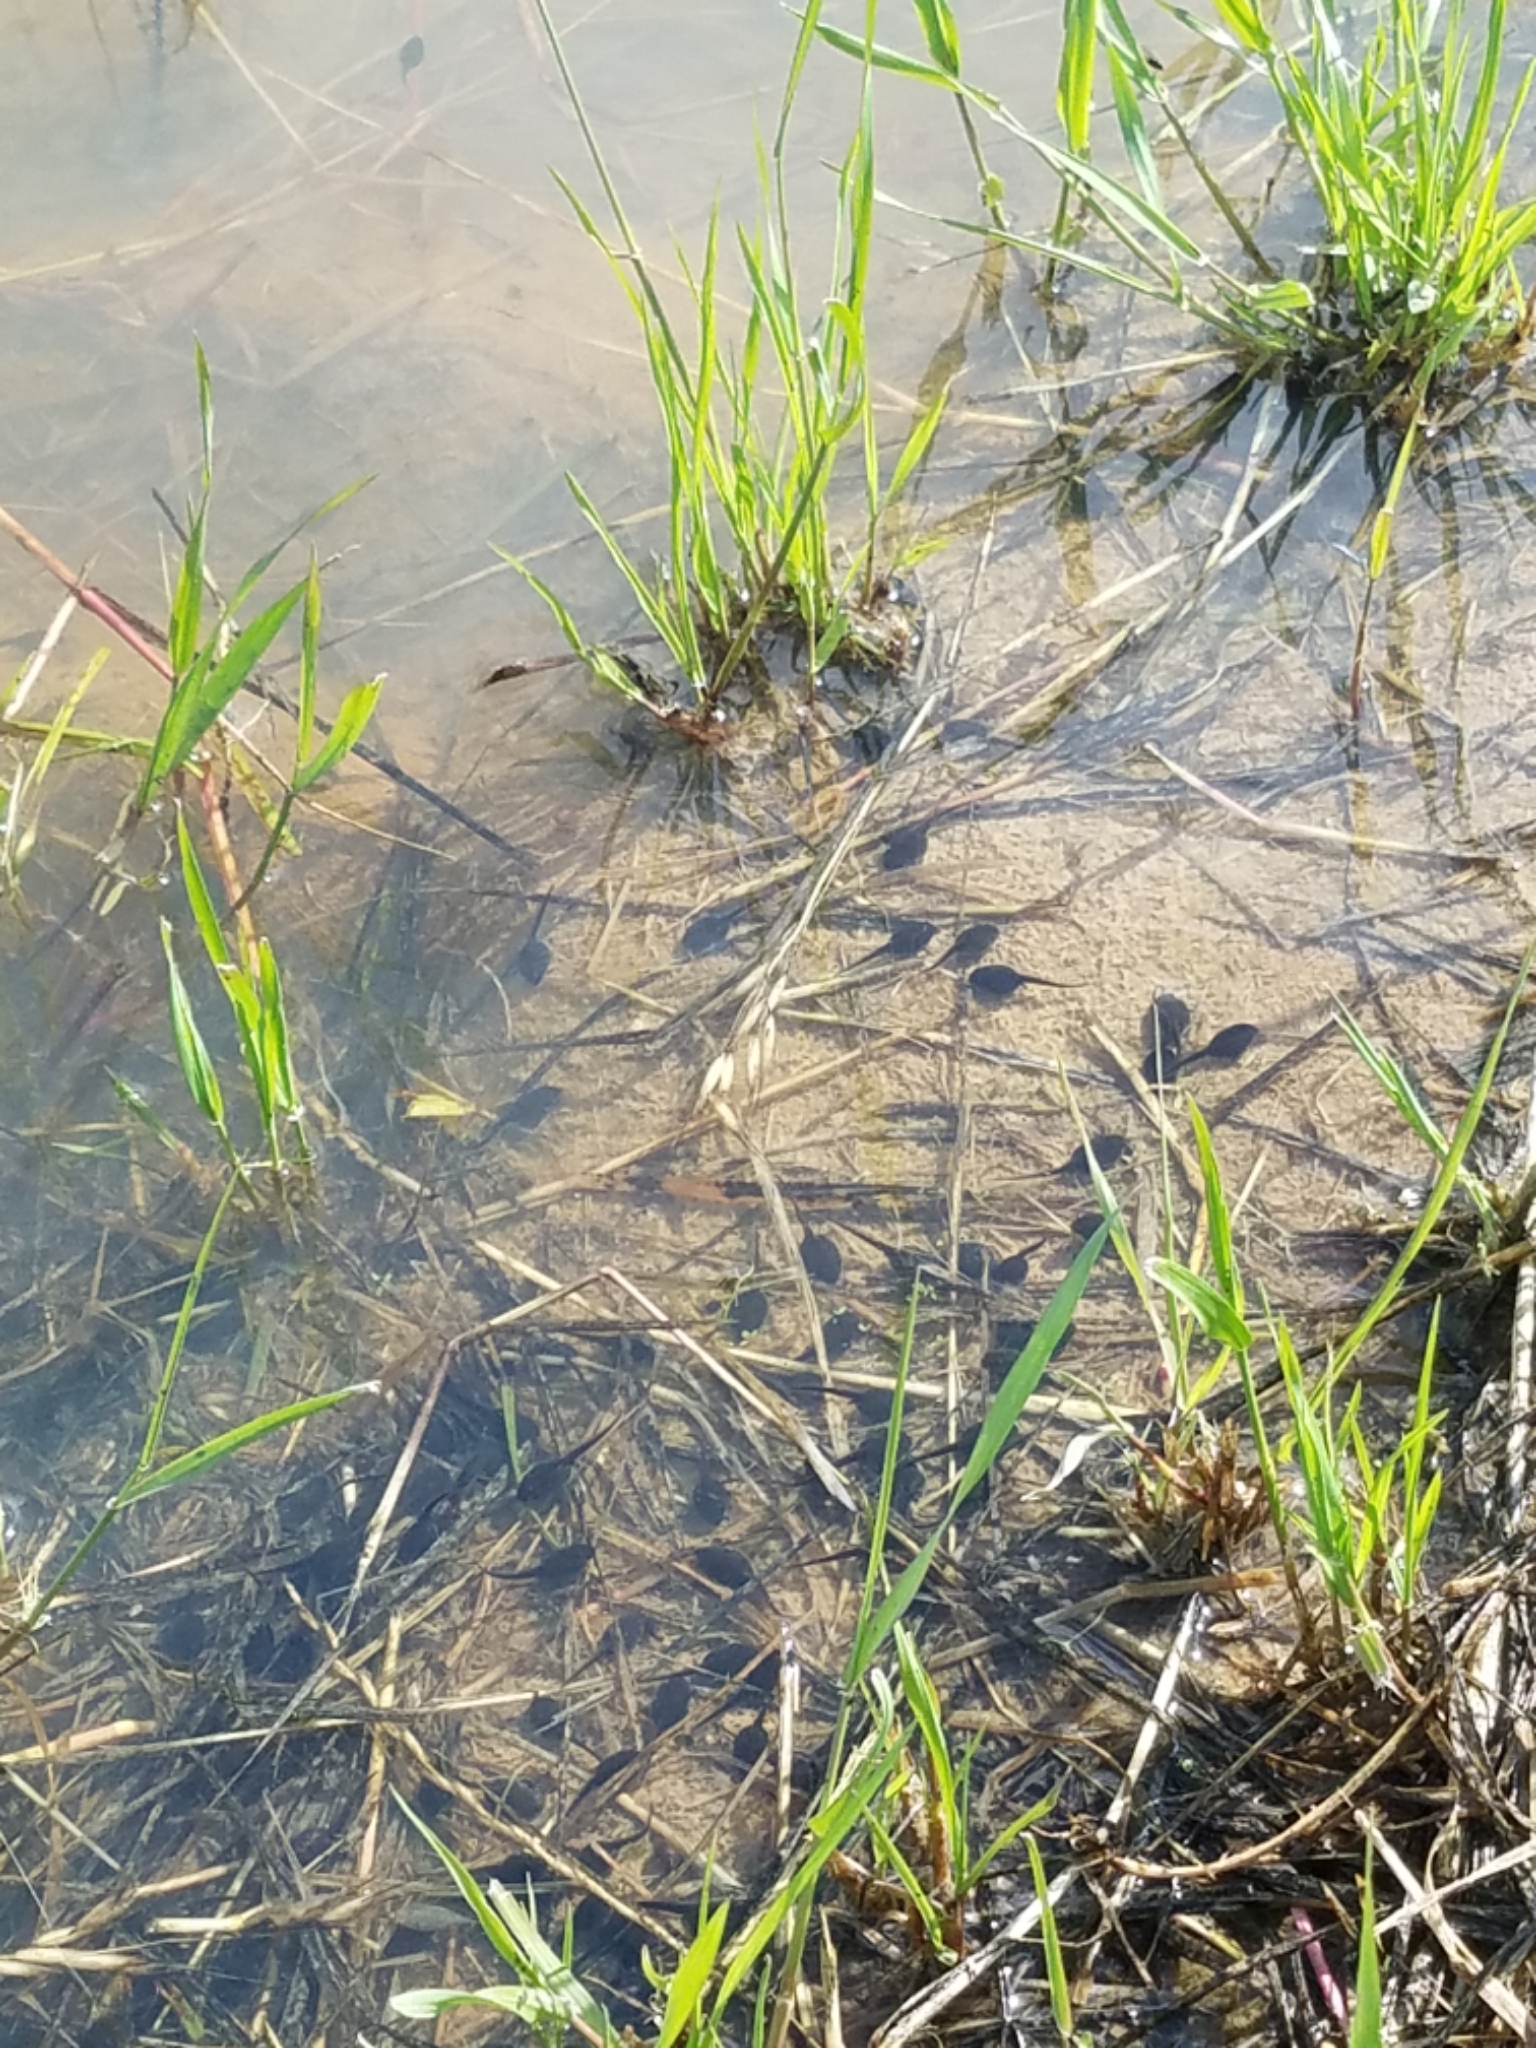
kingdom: Animalia
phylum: Chordata
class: Amphibia
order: Anura
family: Bufonidae
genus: Anaxyrus
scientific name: Anaxyrus boreas
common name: Western toad
